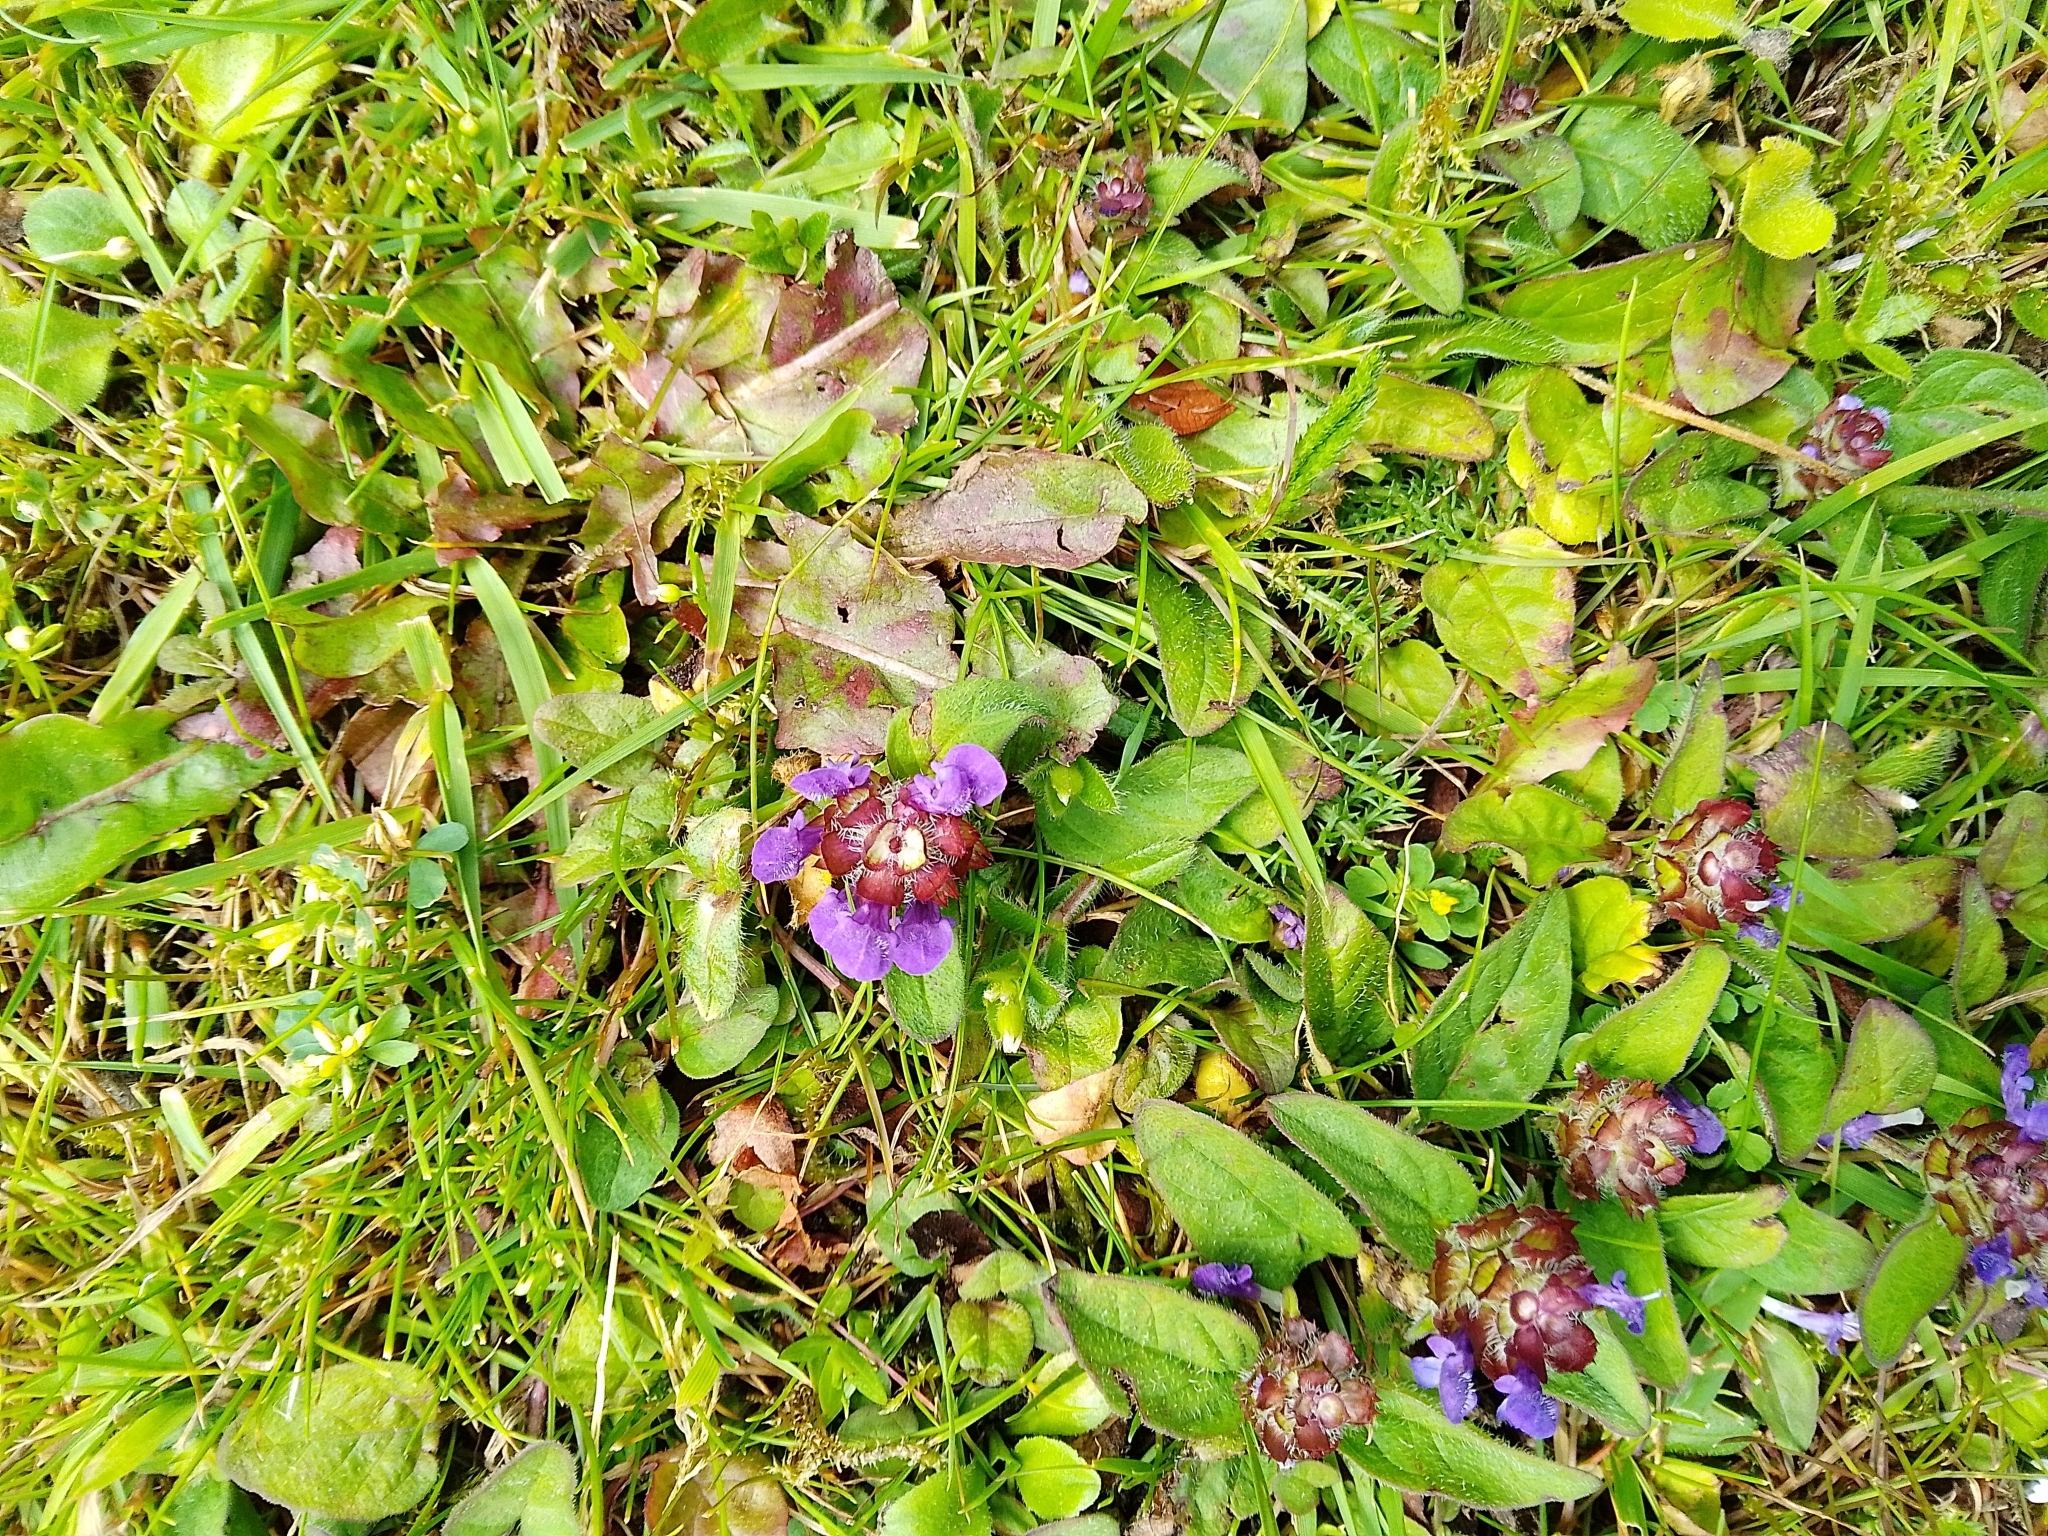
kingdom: Plantae
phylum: Tracheophyta
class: Magnoliopsida
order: Lamiales
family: Lamiaceae
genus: Prunella
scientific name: Prunella vulgaris
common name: Heal-all
